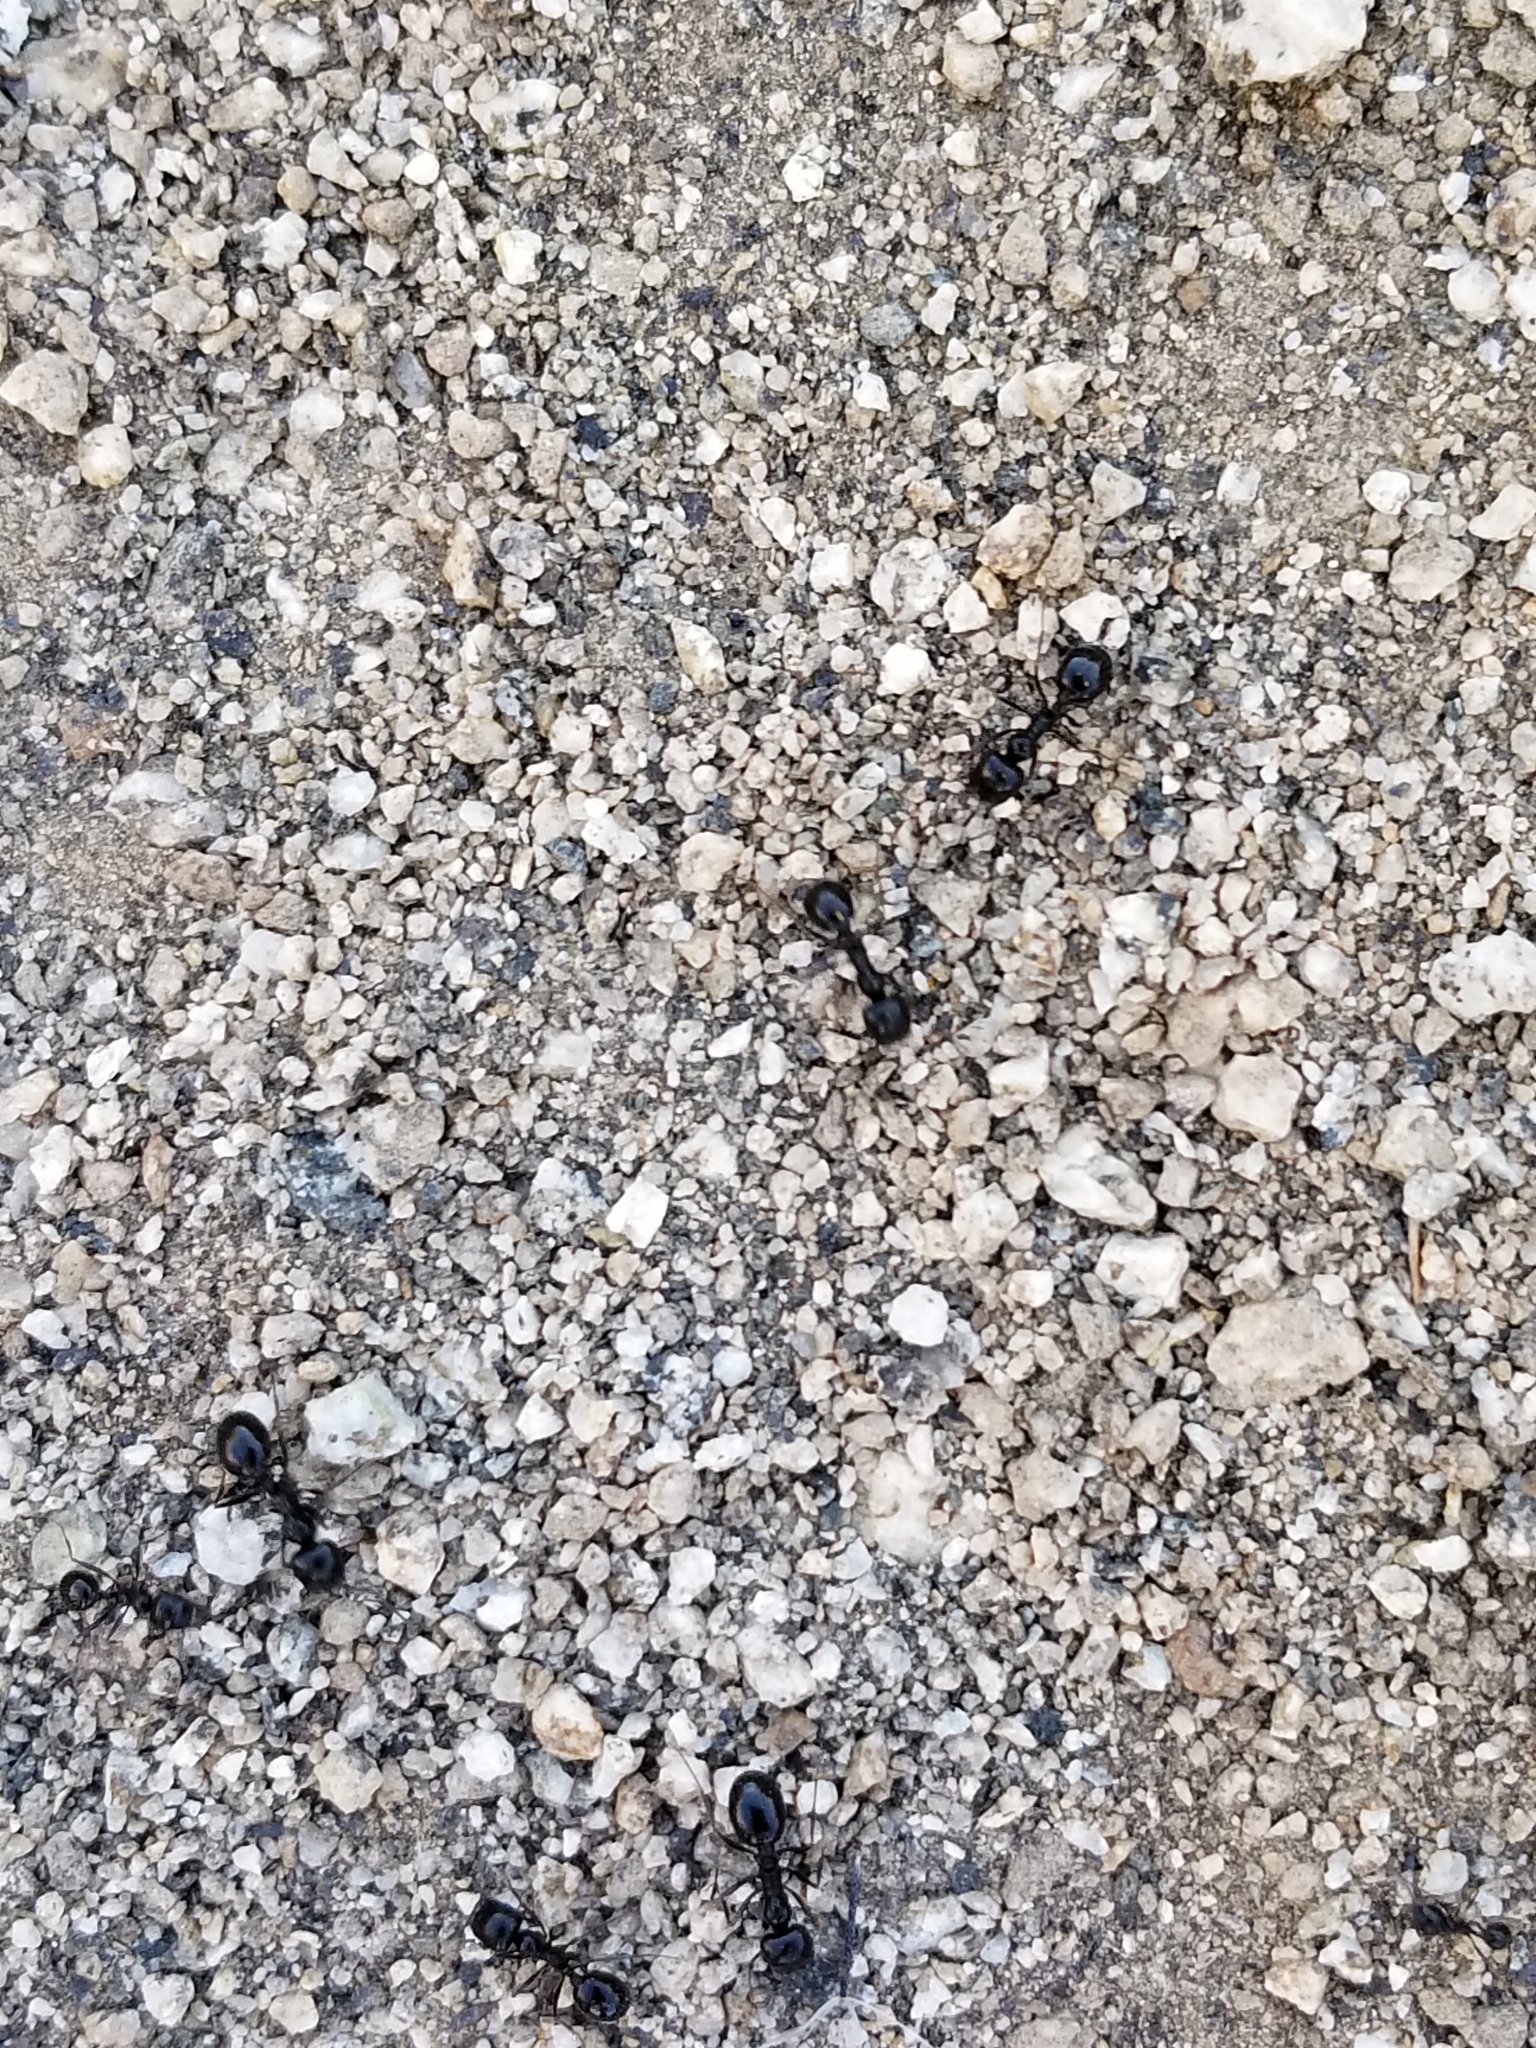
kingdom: Animalia
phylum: Arthropoda
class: Insecta
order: Hymenoptera
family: Formicidae
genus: Messor
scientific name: Messor pergandei
